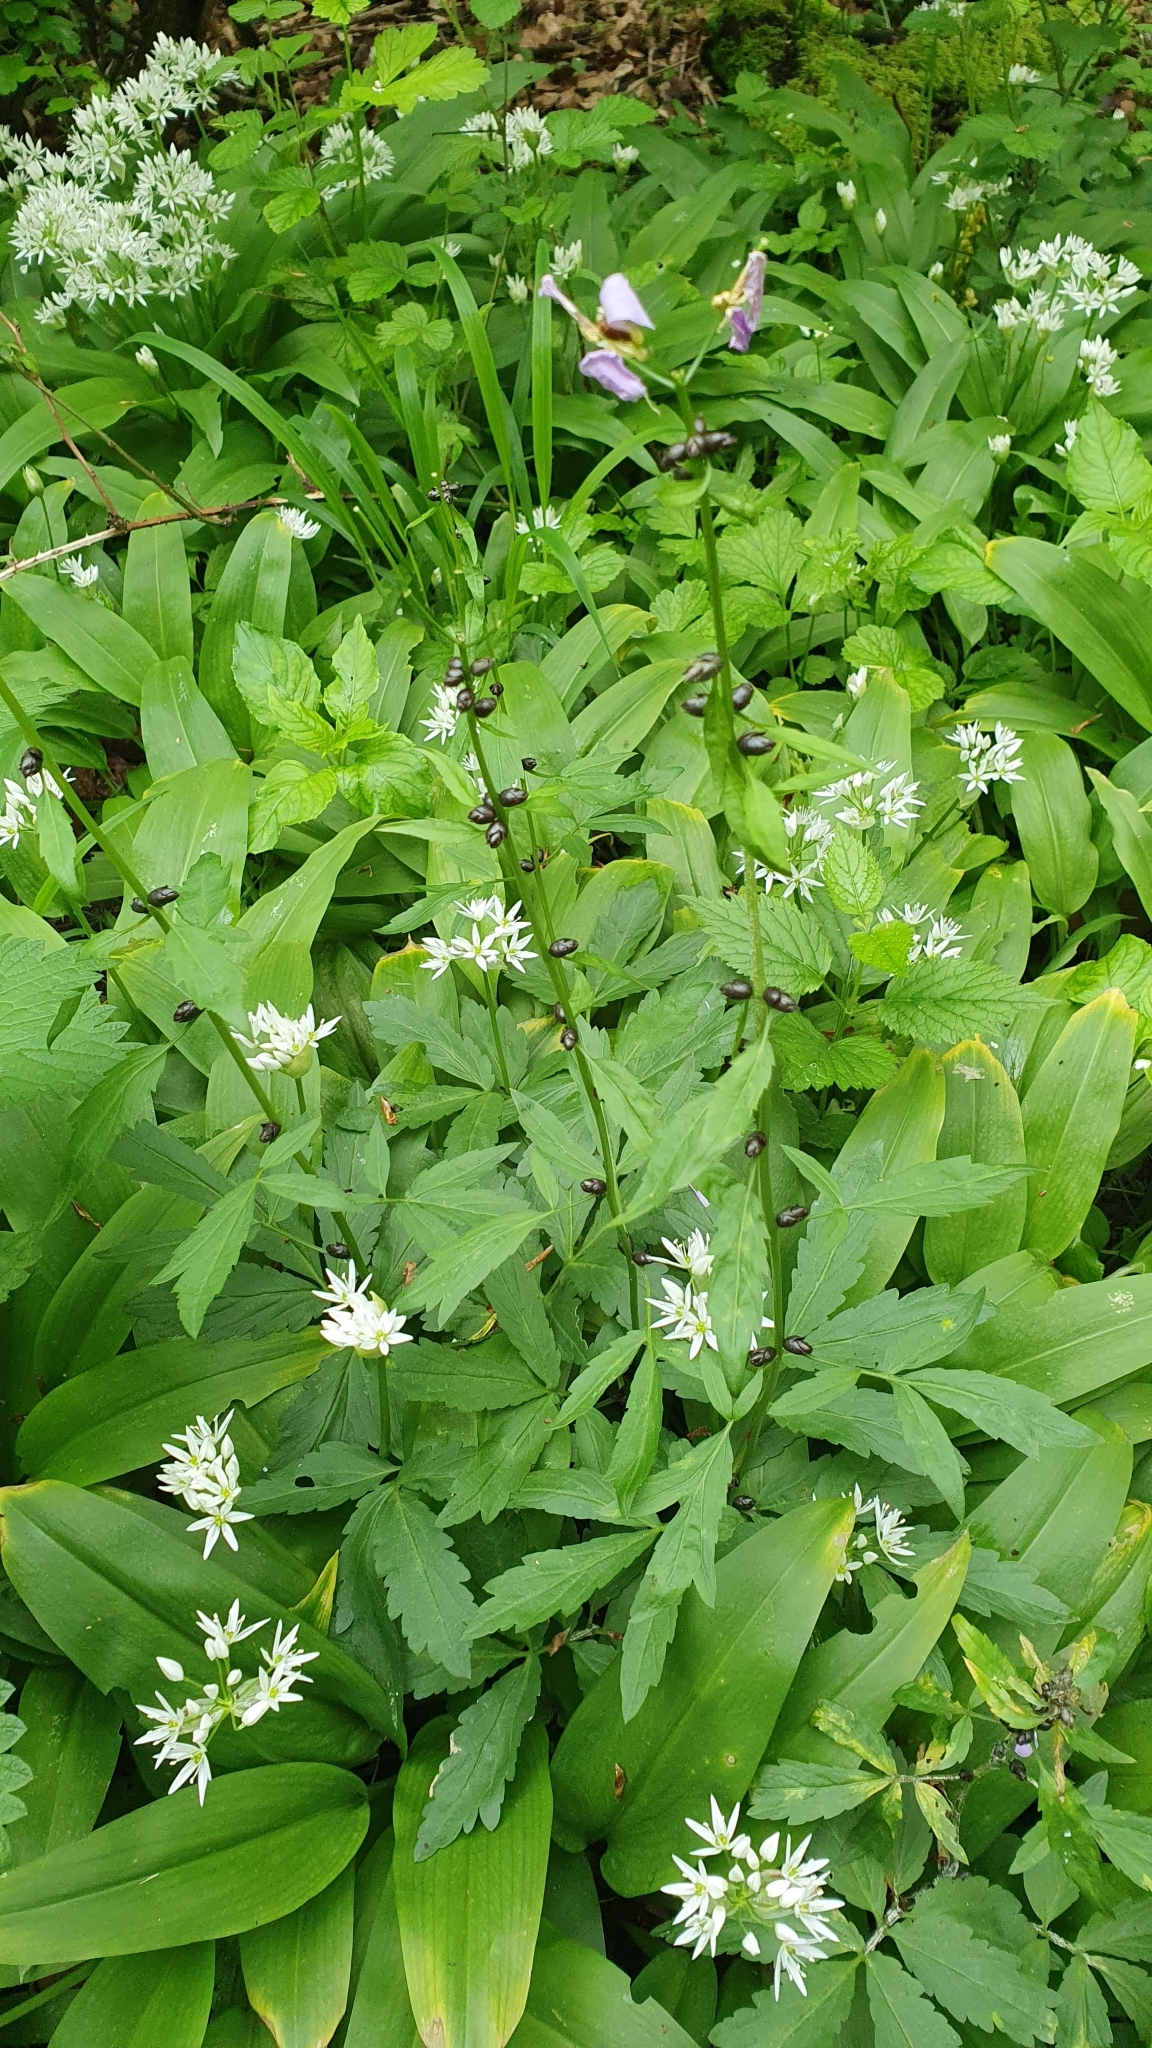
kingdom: Plantae
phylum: Tracheophyta
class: Magnoliopsida
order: Brassicales
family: Brassicaceae
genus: Cardamine
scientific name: Cardamine bulbifera
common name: Coralroot bittercress
